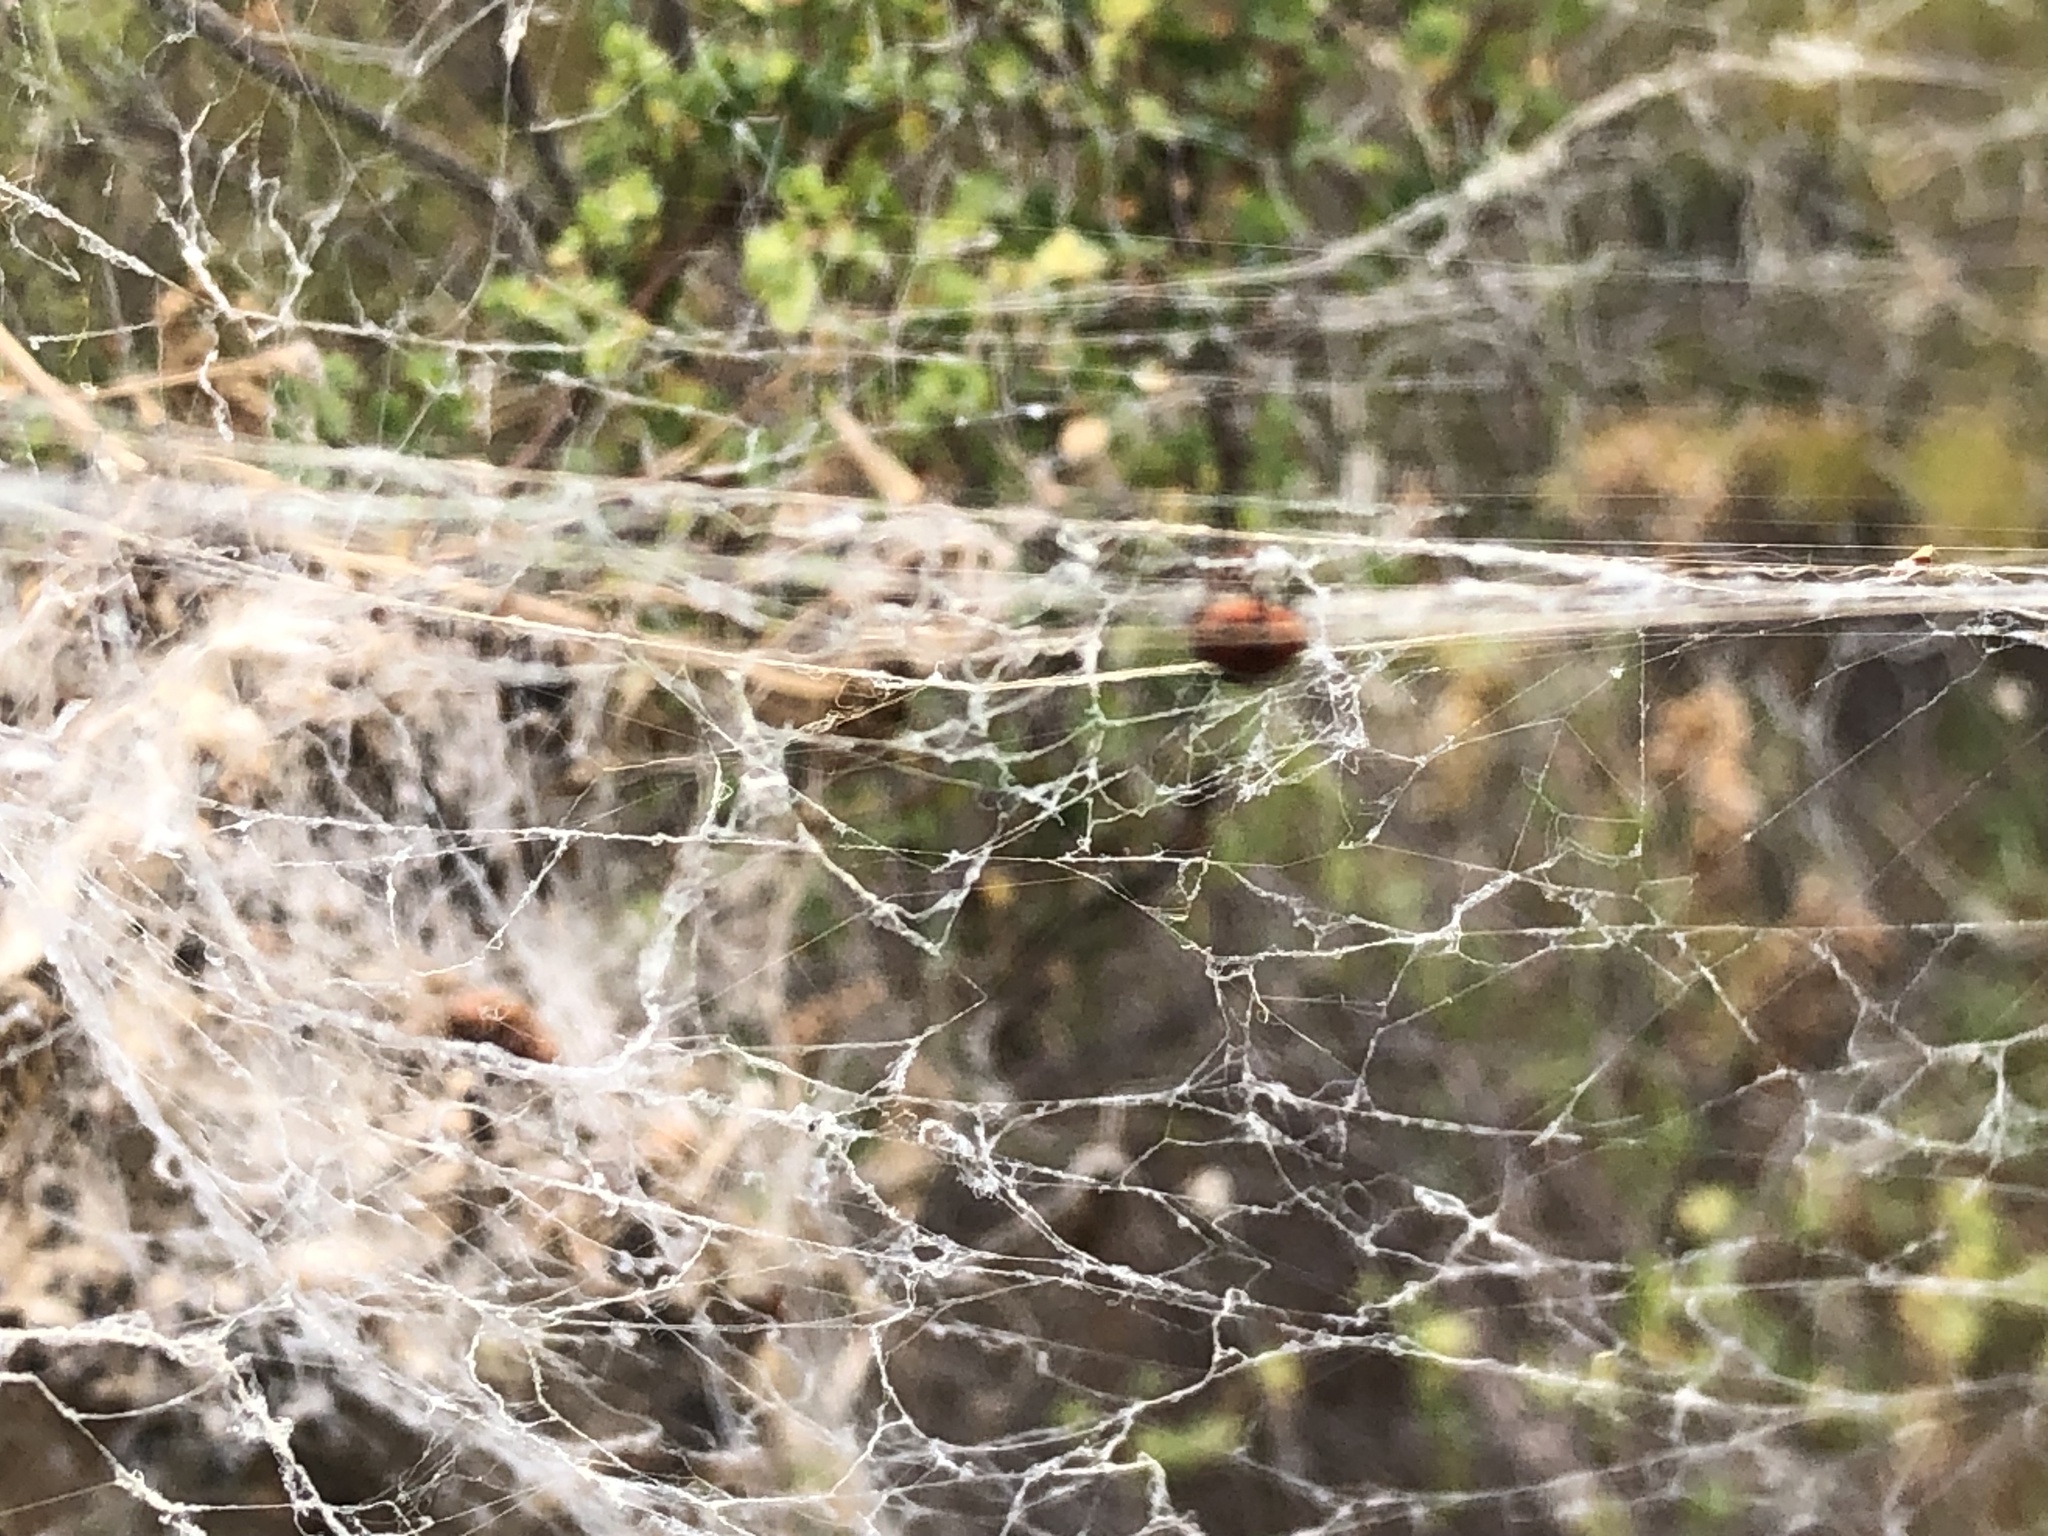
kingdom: Animalia
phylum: Arthropoda
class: Insecta
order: Coleoptera
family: Coccinellidae
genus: Hippodamia
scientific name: Hippodamia variegata
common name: Ladybird beetle
